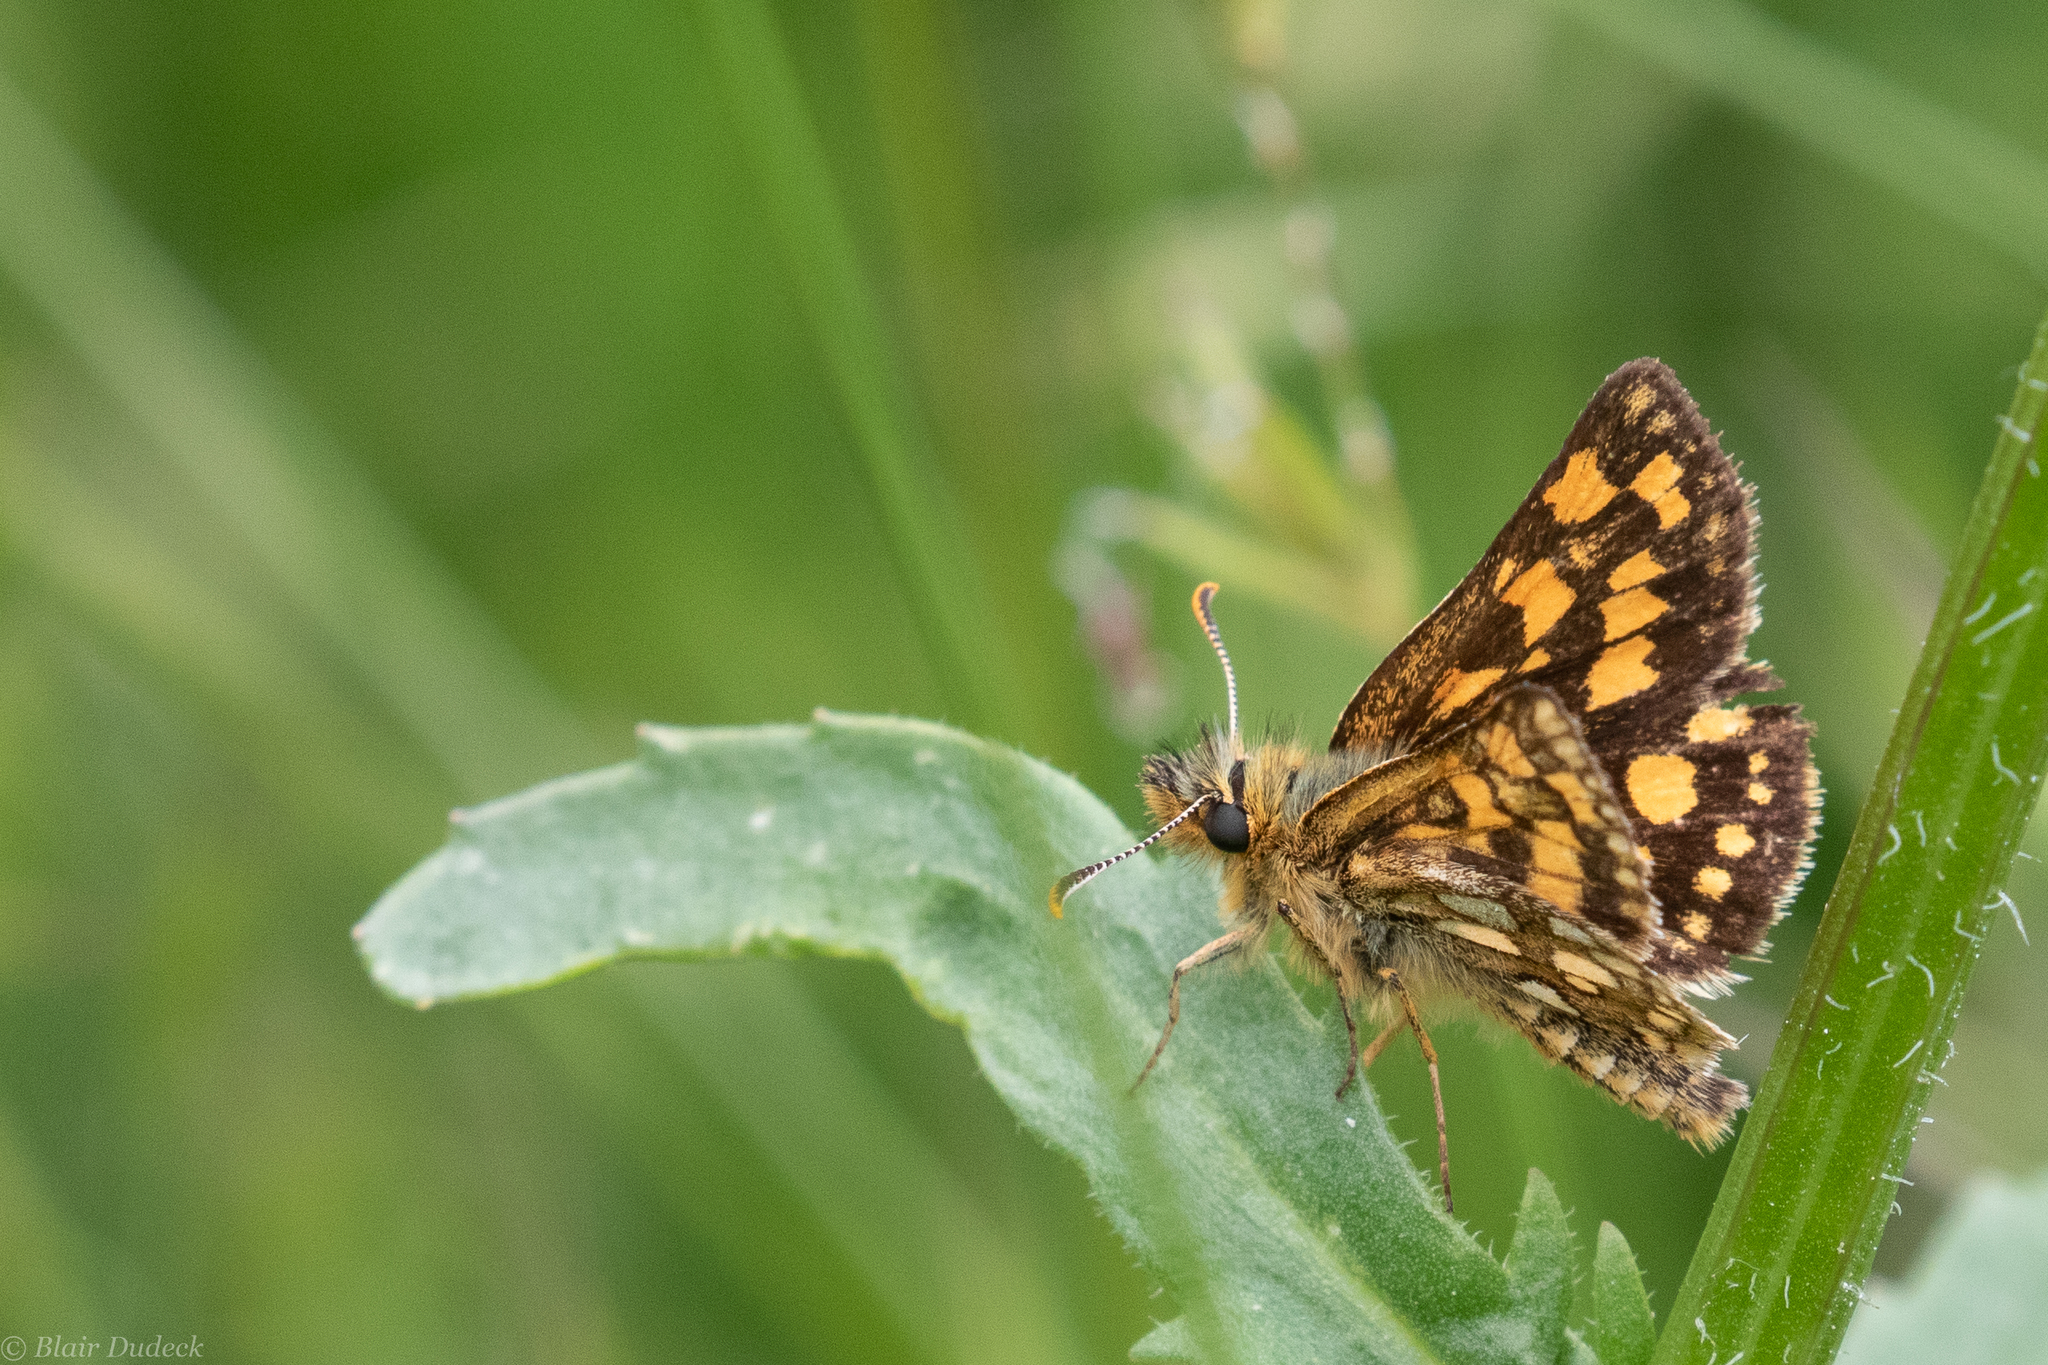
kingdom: Animalia
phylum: Arthropoda
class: Insecta
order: Lepidoptera
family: Hesperiidae
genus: Carterocephalus
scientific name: Carterocephalus skada
